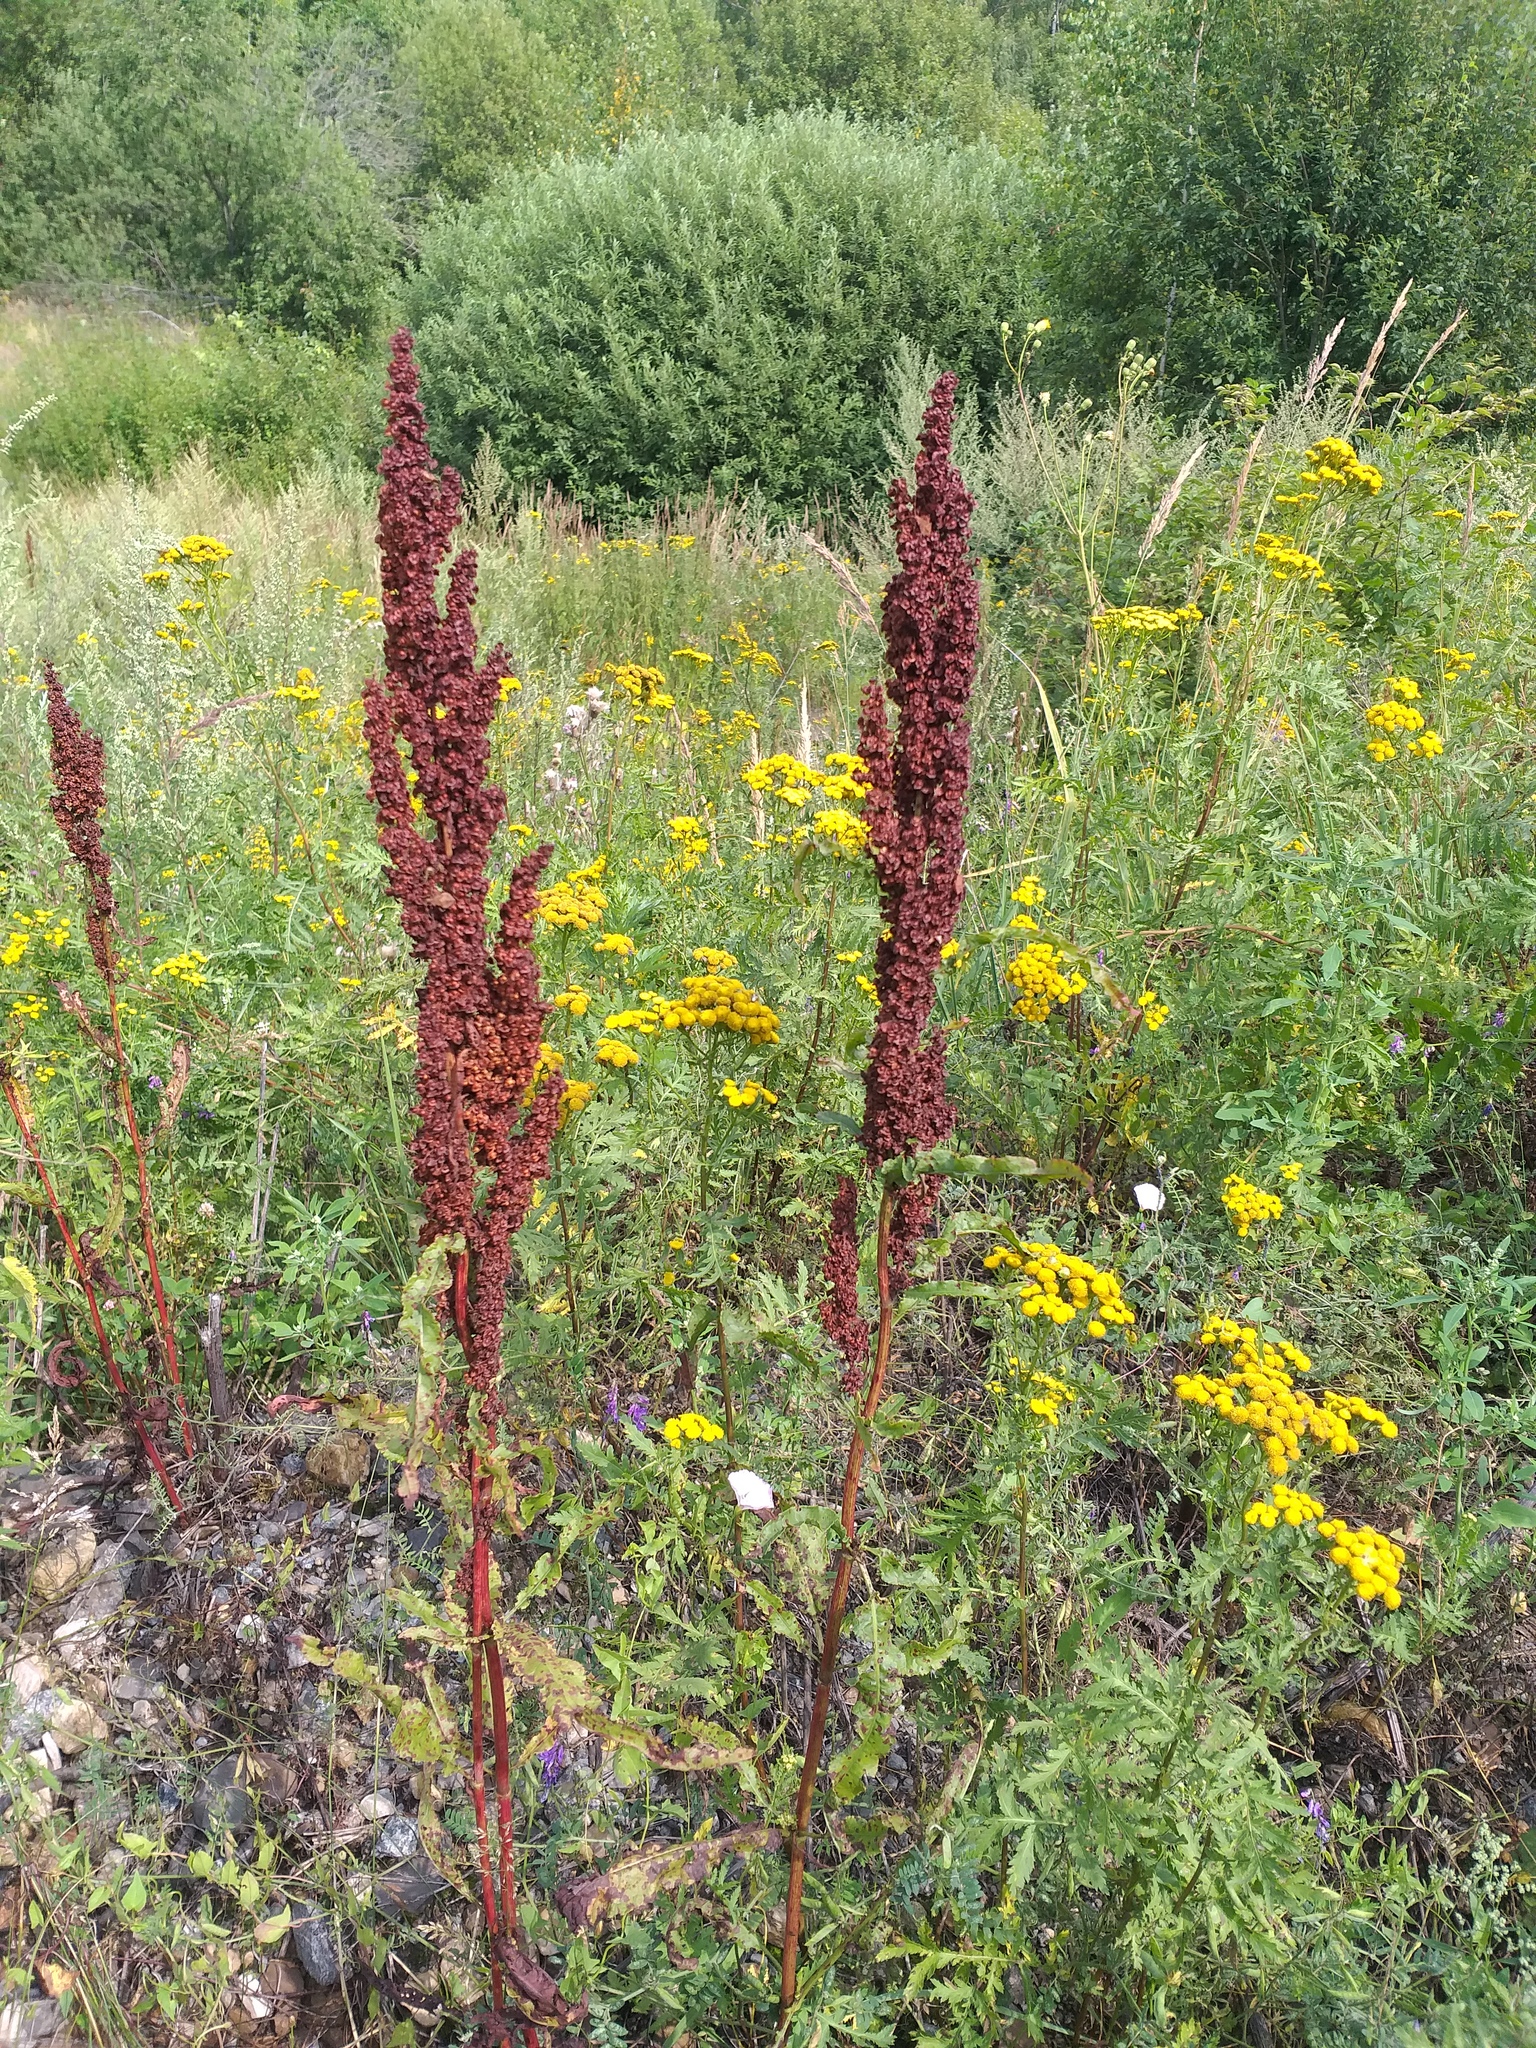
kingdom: Plantae
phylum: Tracheophyta
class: Magnoliopsida
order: Caryophyllales
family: Polygonaceae
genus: Rumex
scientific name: Rumex crispus
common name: Curled dock
